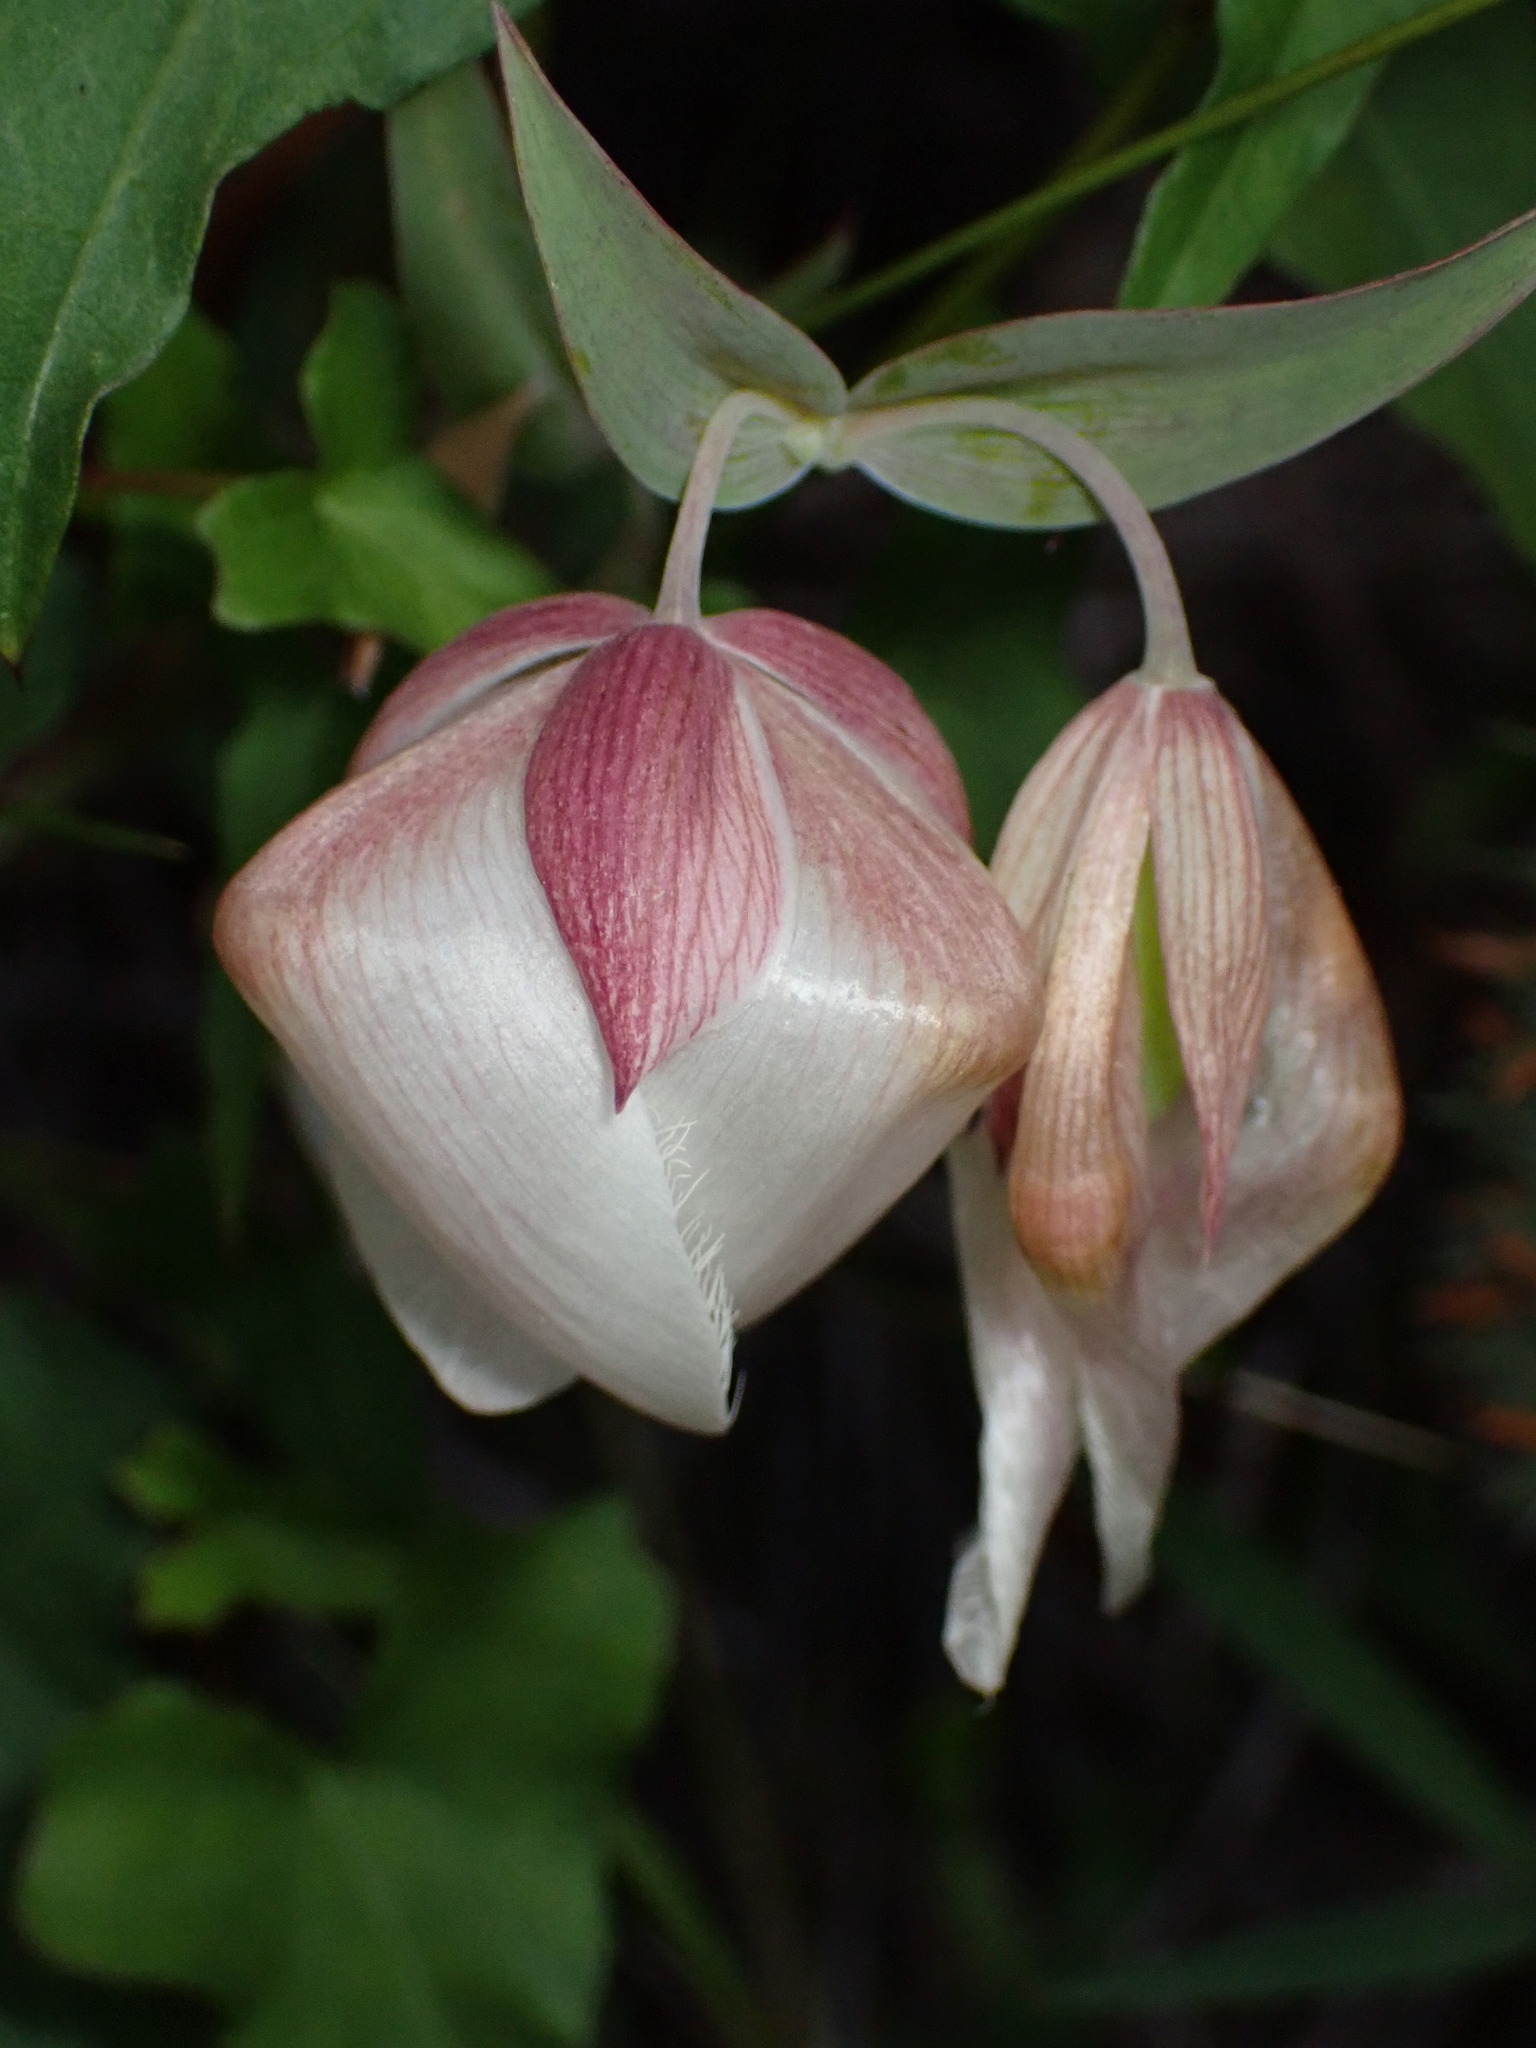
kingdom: Plantae
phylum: Tracheophyta
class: Liliopsida
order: Liliales
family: Liliaceae
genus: Calochortus
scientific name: Calochortus albus
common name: Fairy-lantern
